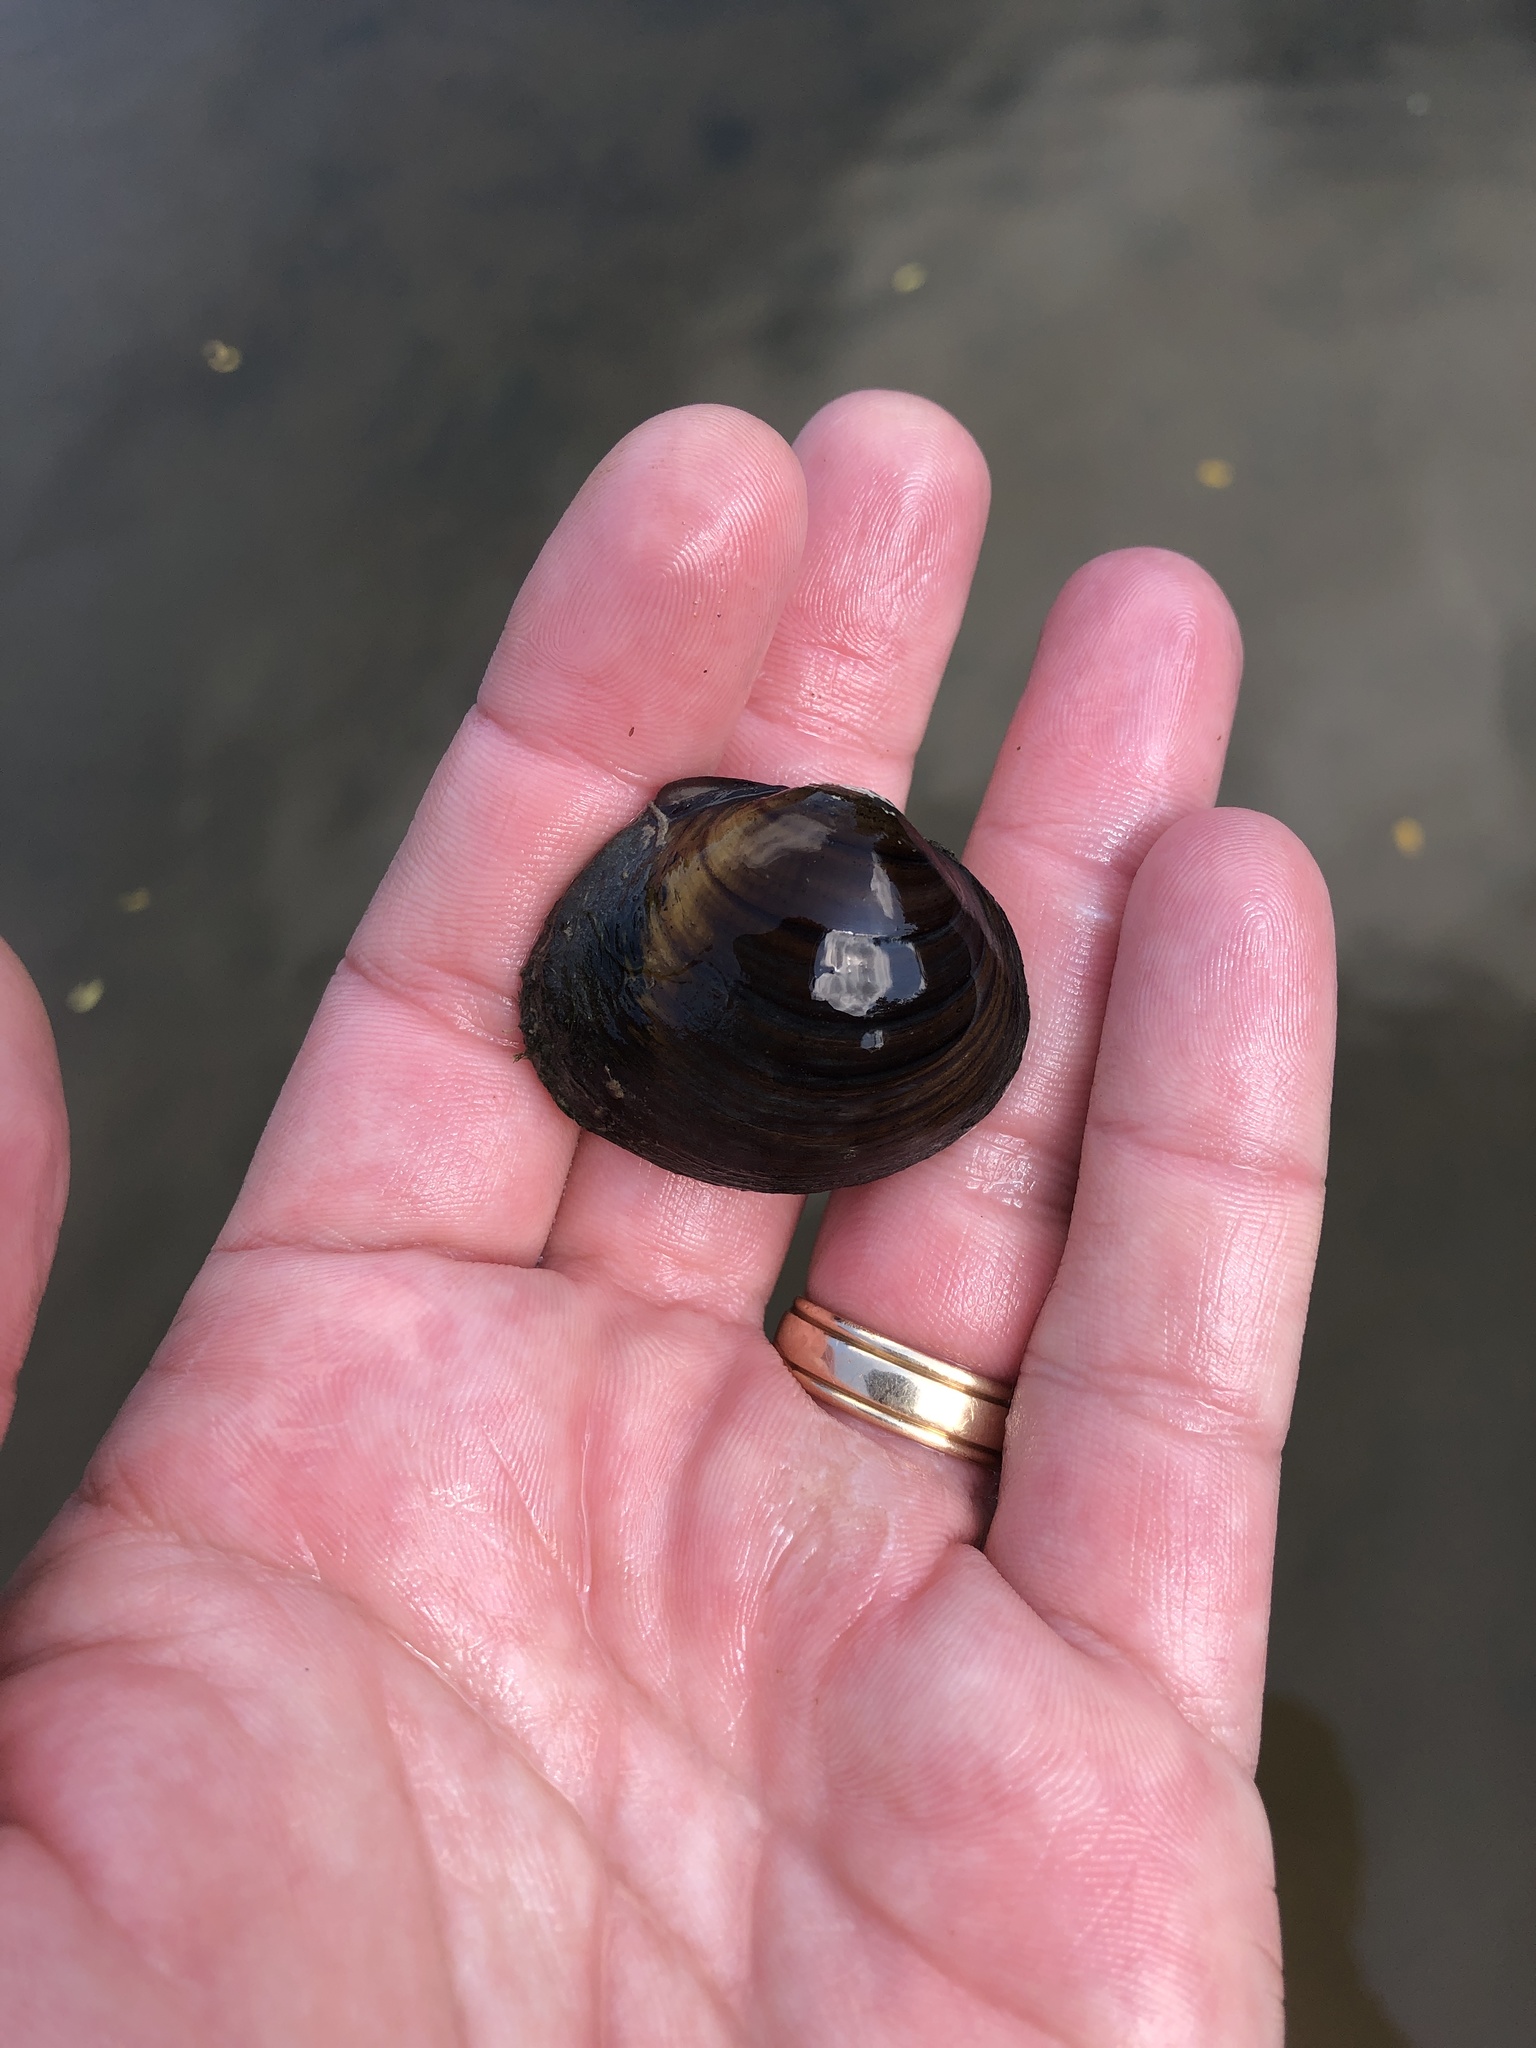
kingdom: Animalia
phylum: Mollusca
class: Bivalvia
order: Unionida
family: Unionidae
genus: Obovaria
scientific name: Obovaria subrotunda
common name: Round hickorynut
